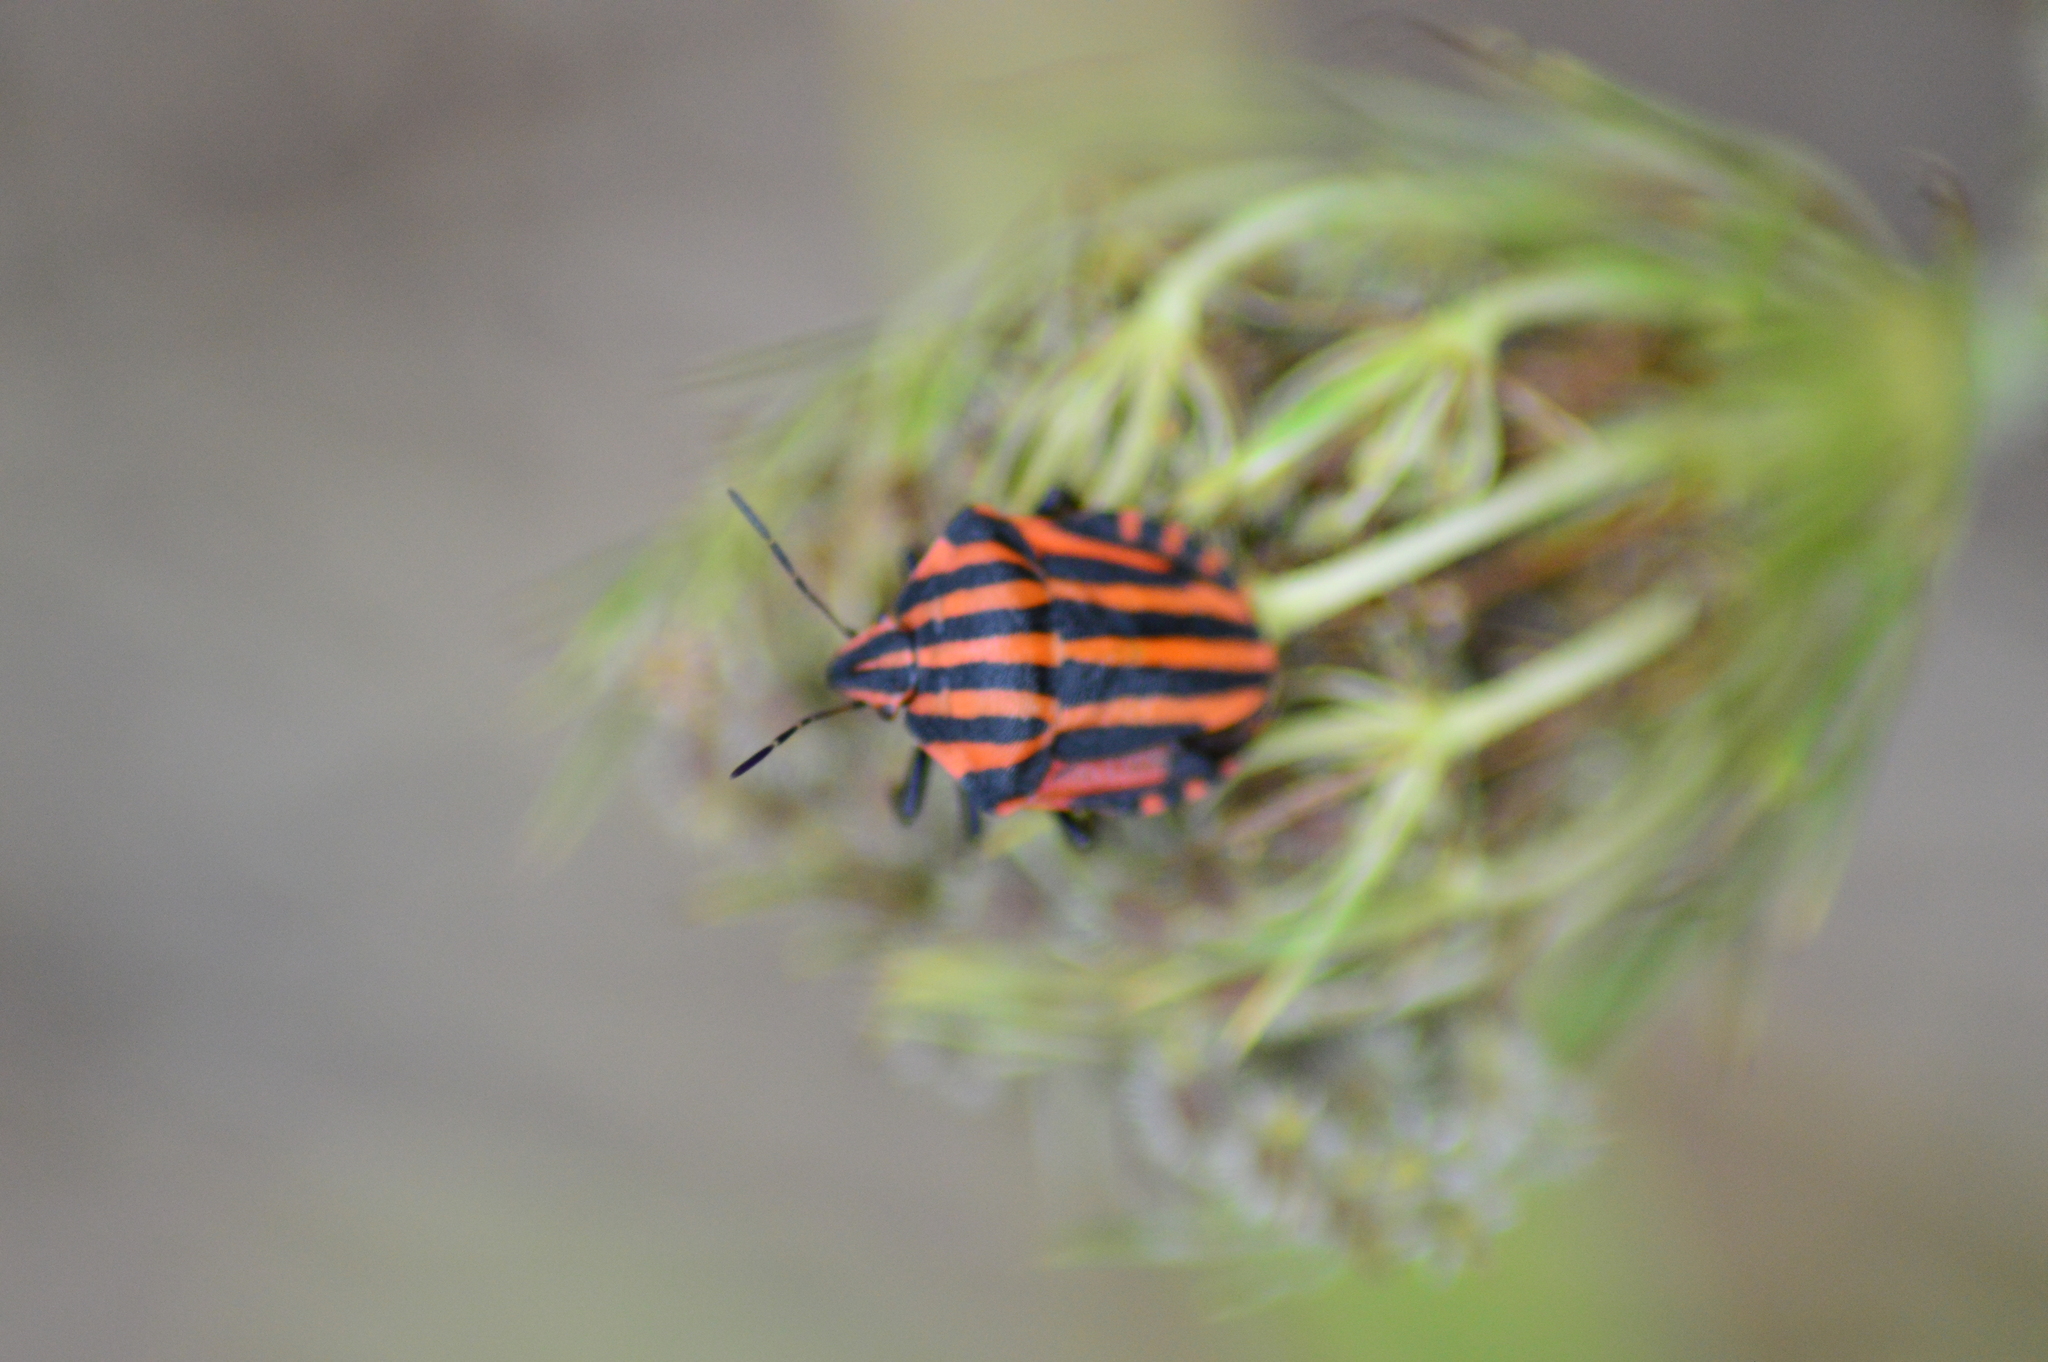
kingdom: Animalia
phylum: Arthropoda
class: Insecta
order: Hemiptera
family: Pentatomidae
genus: Graphosoma
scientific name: Graphosoma italicum
